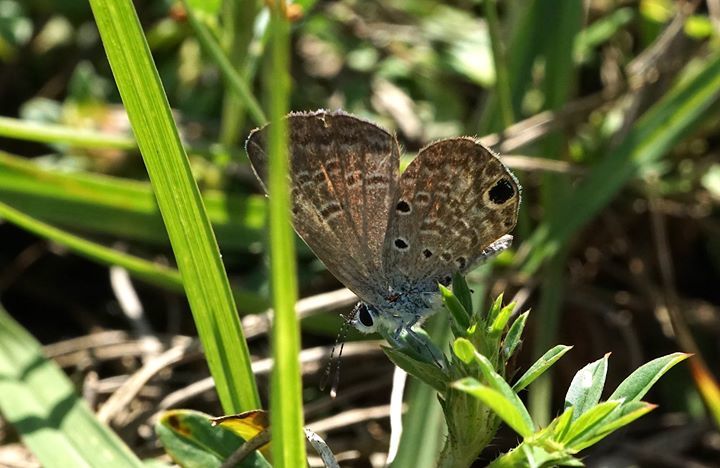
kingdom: Animalia
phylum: Arthropoda
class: Insecta
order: Lepidoptera
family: Lycaenidae
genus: Hemiargus
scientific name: Hemiargus ceraunus
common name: Ceraunus blue
